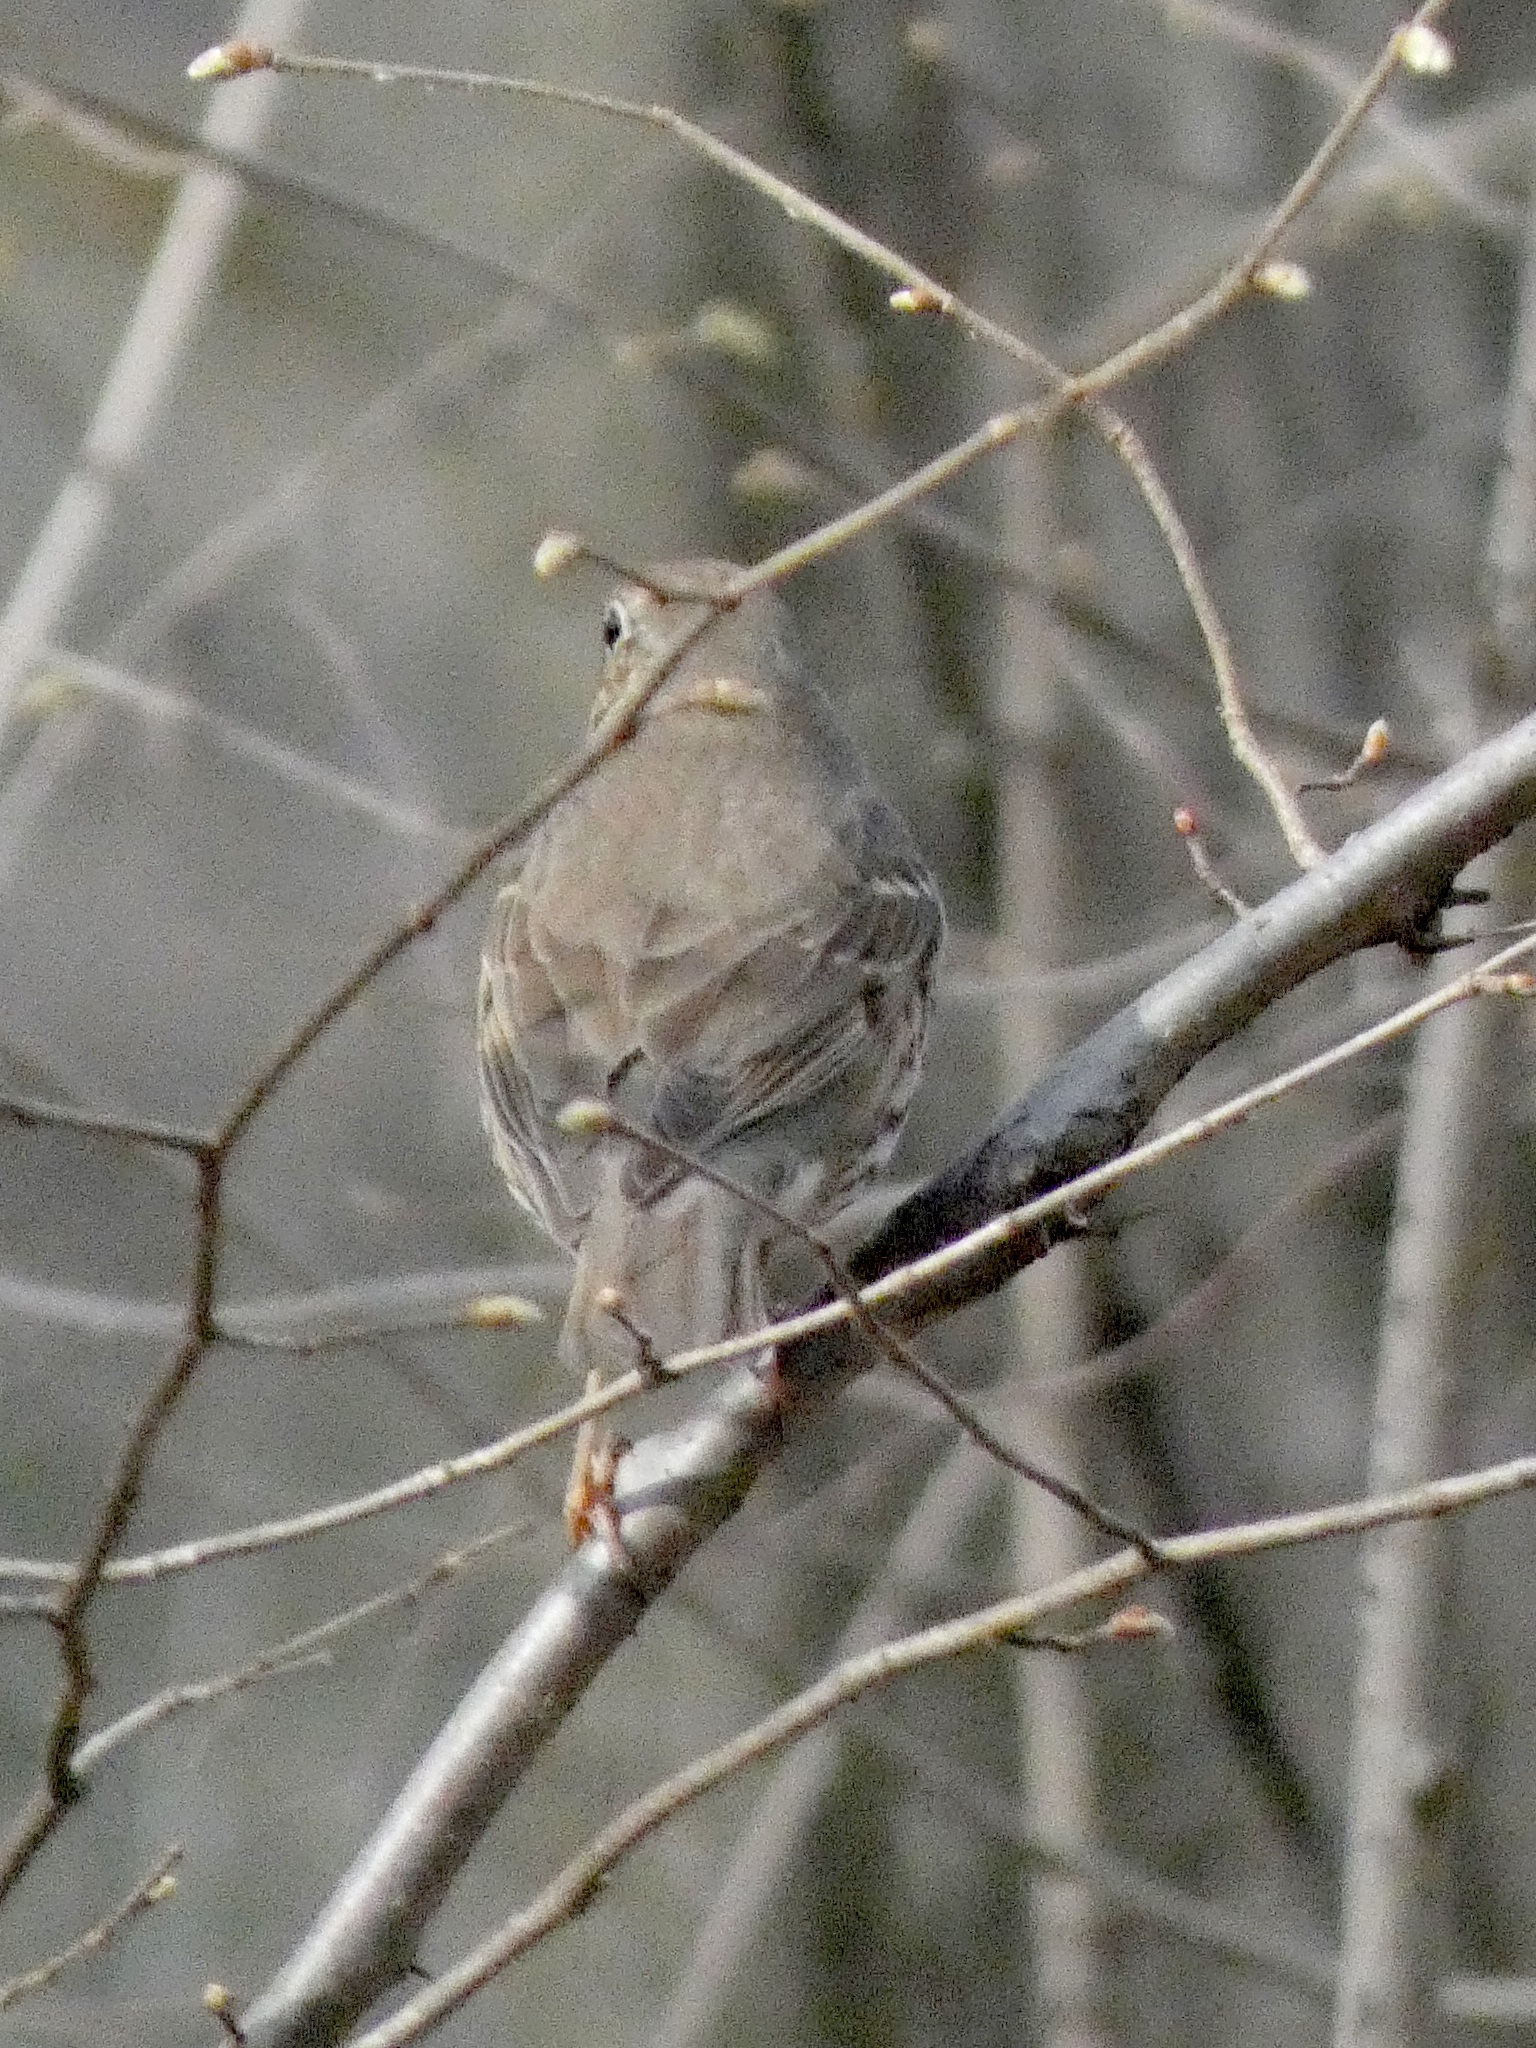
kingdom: Animalia
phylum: Chordata
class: Aves
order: Passeriformes
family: Turdidae
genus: Turdus
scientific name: Turdus philomelos
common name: Song thrush
